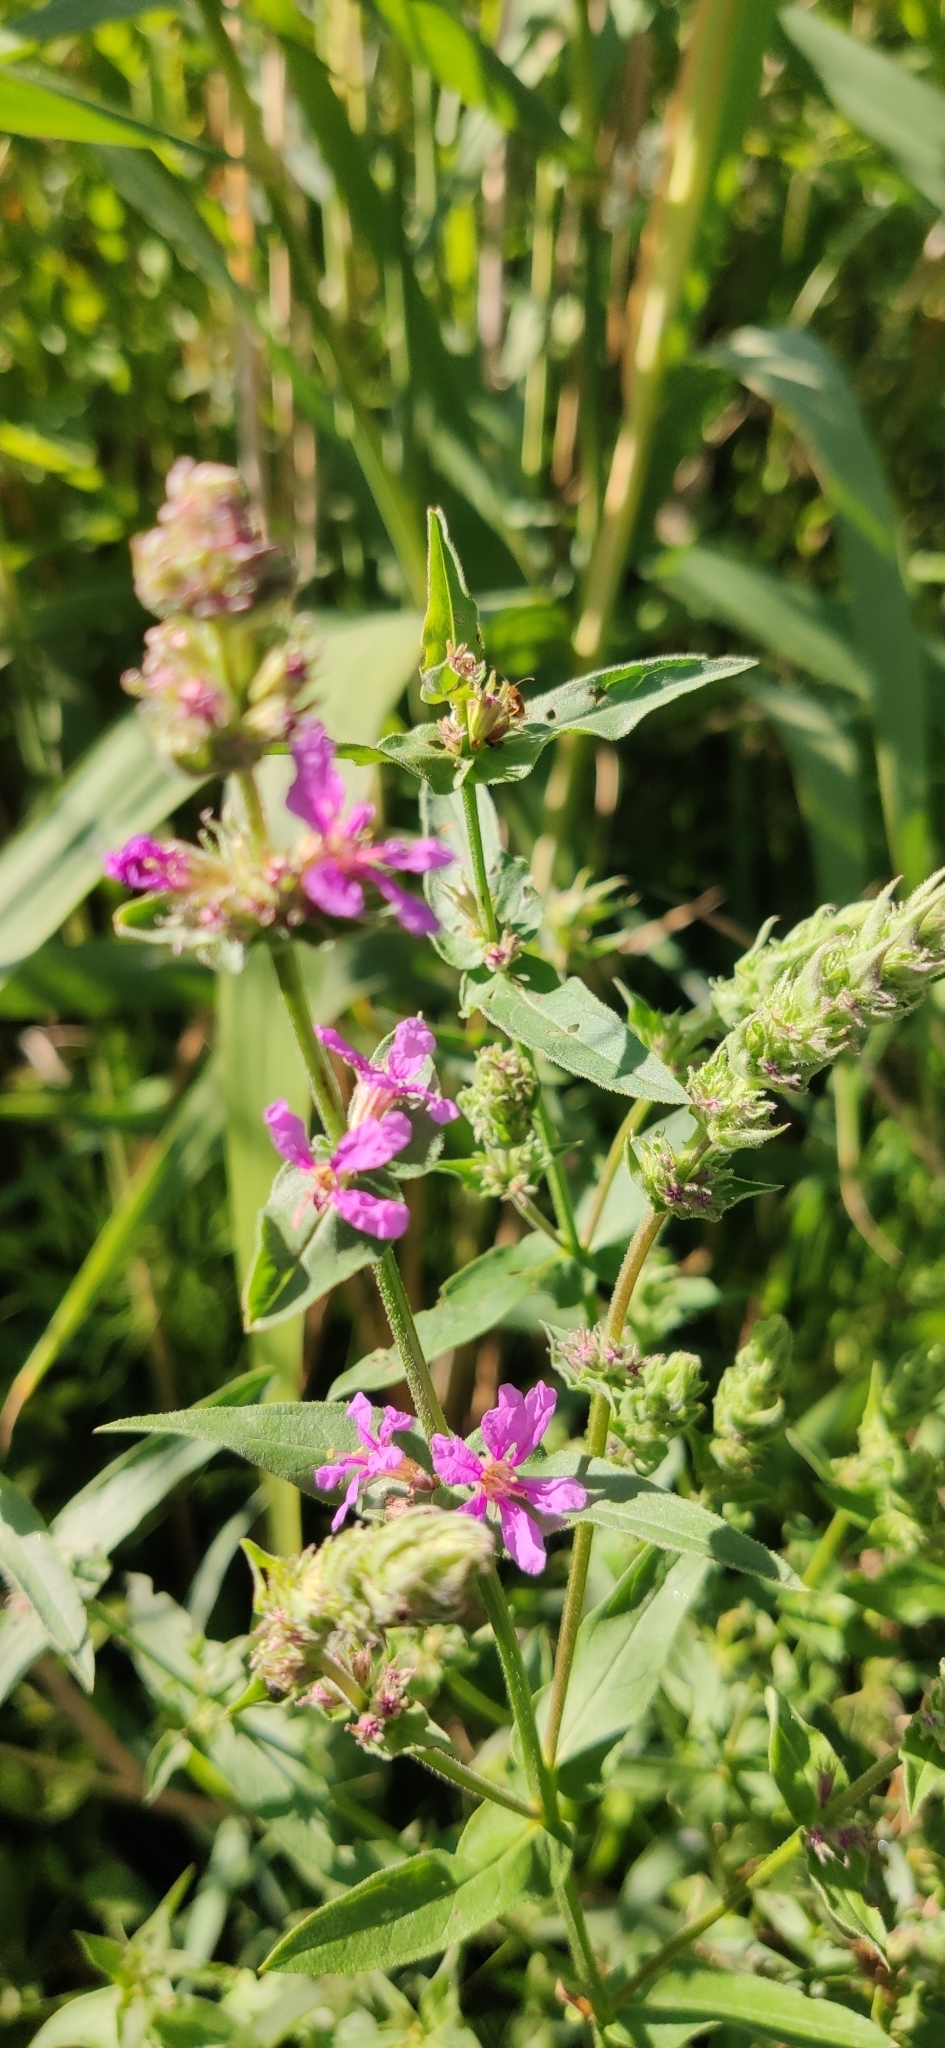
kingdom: Plantae
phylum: Tracheophyta
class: Magnoliopsida
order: Myrtales
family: Lythraceae
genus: Lythrum
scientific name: Lythrum salicaria
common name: Purple loosestrife
